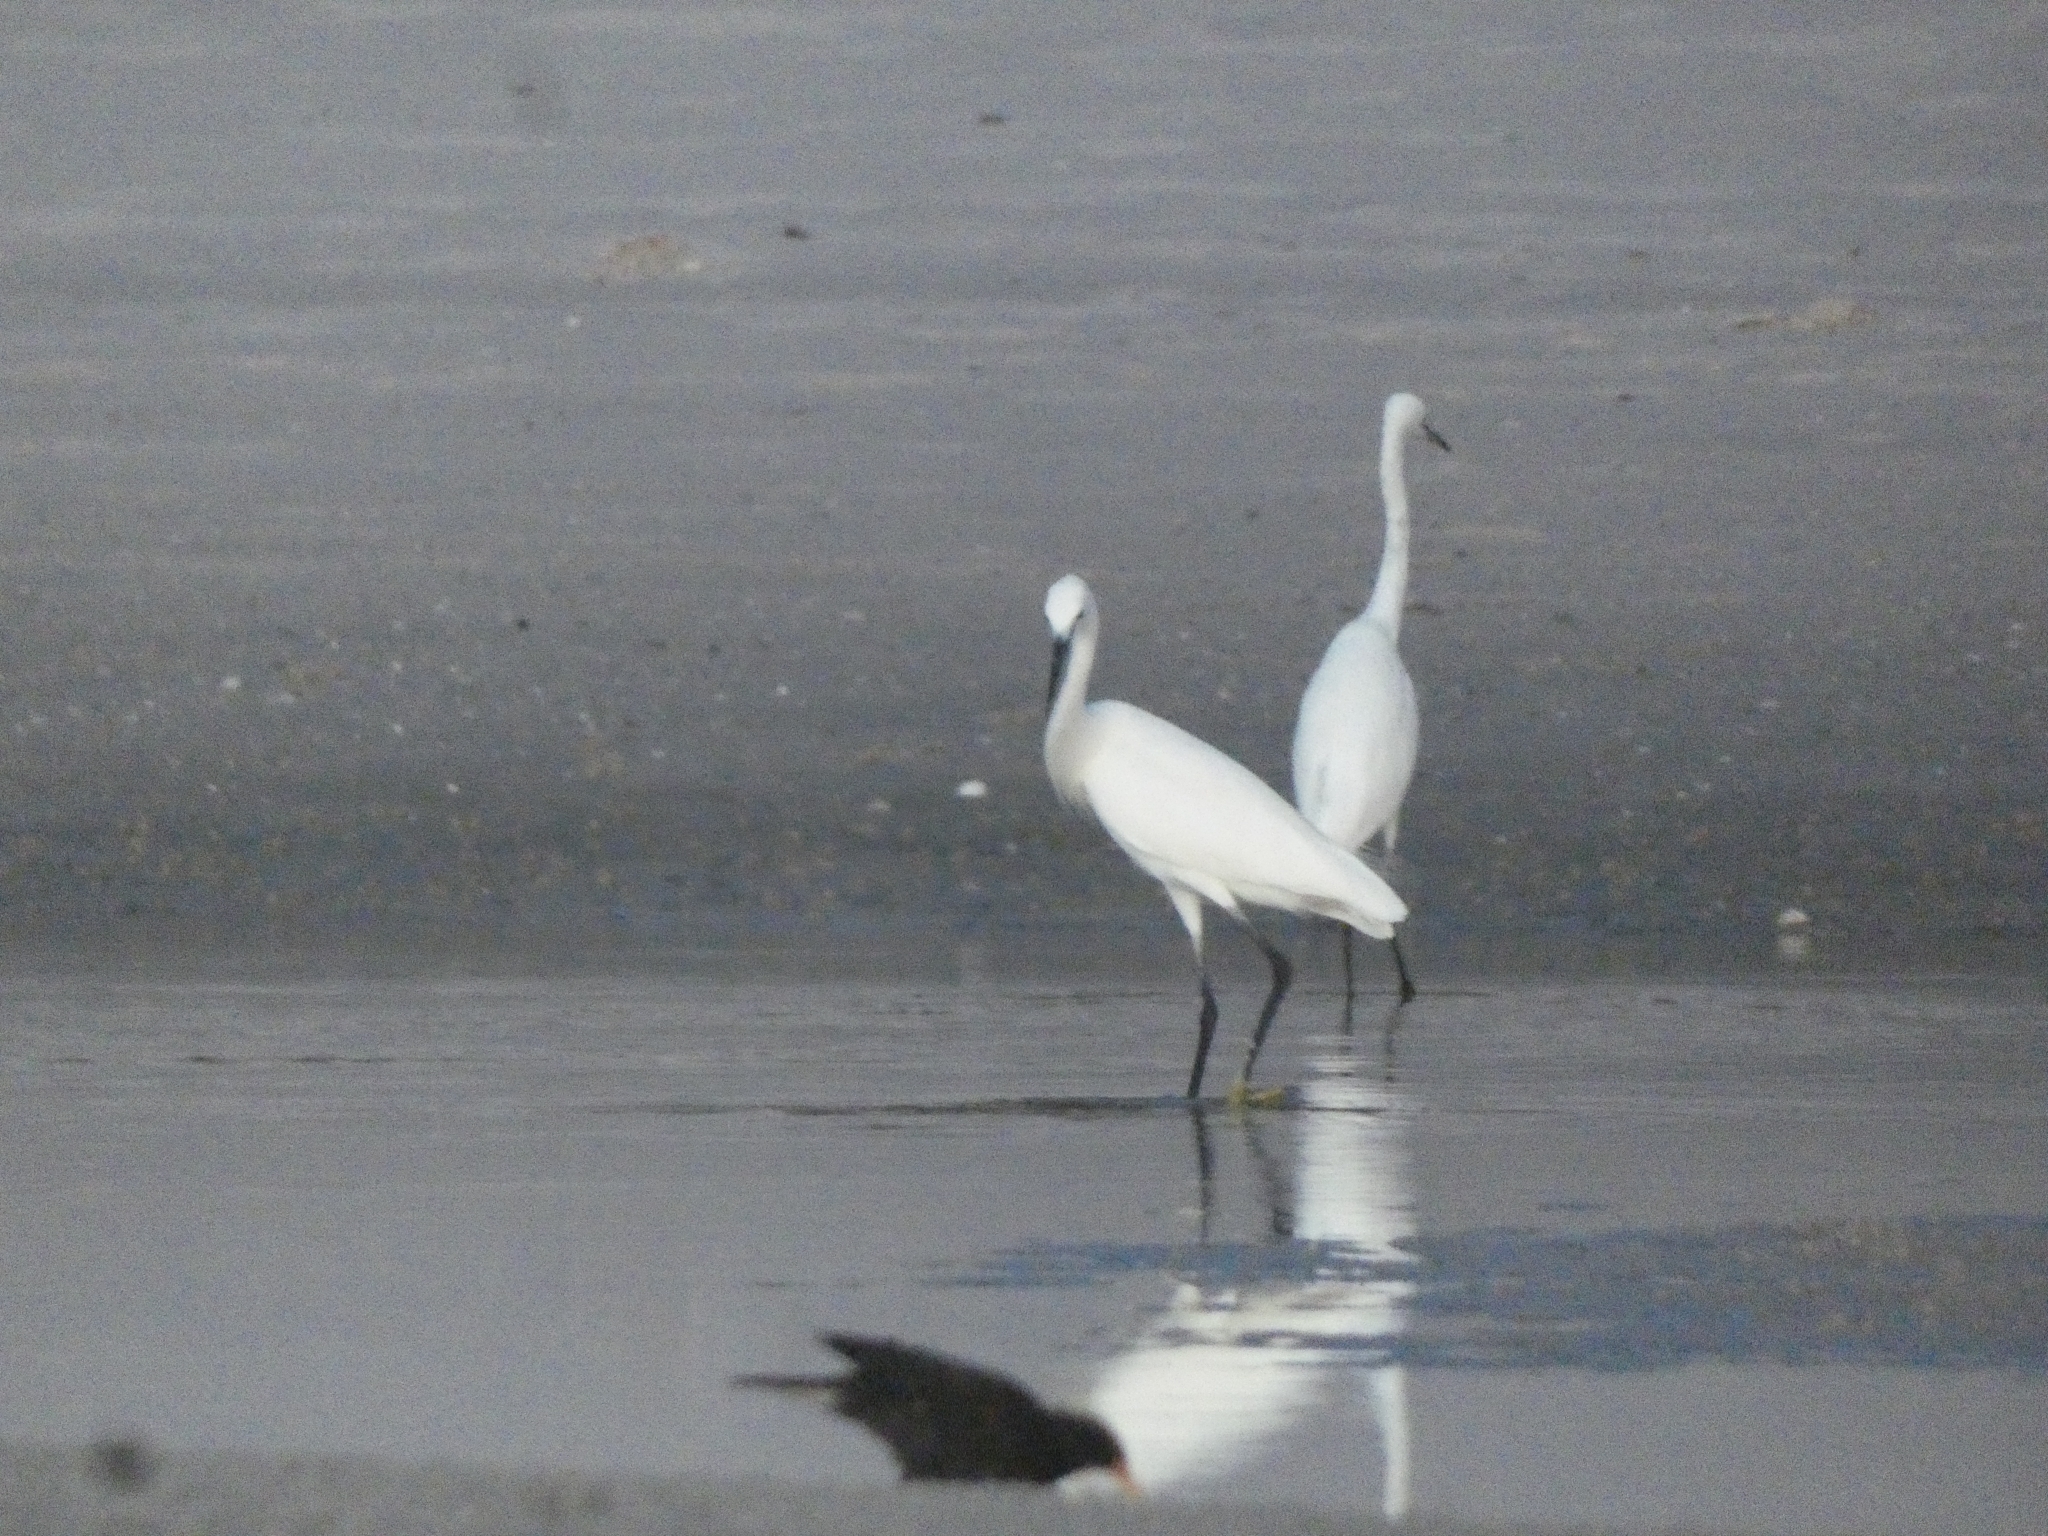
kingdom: Animalia
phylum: Chordata
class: Aves
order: Pelecaniformes
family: Ardeidae
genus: Egretta
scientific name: Egretta garzetta
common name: Little egret
